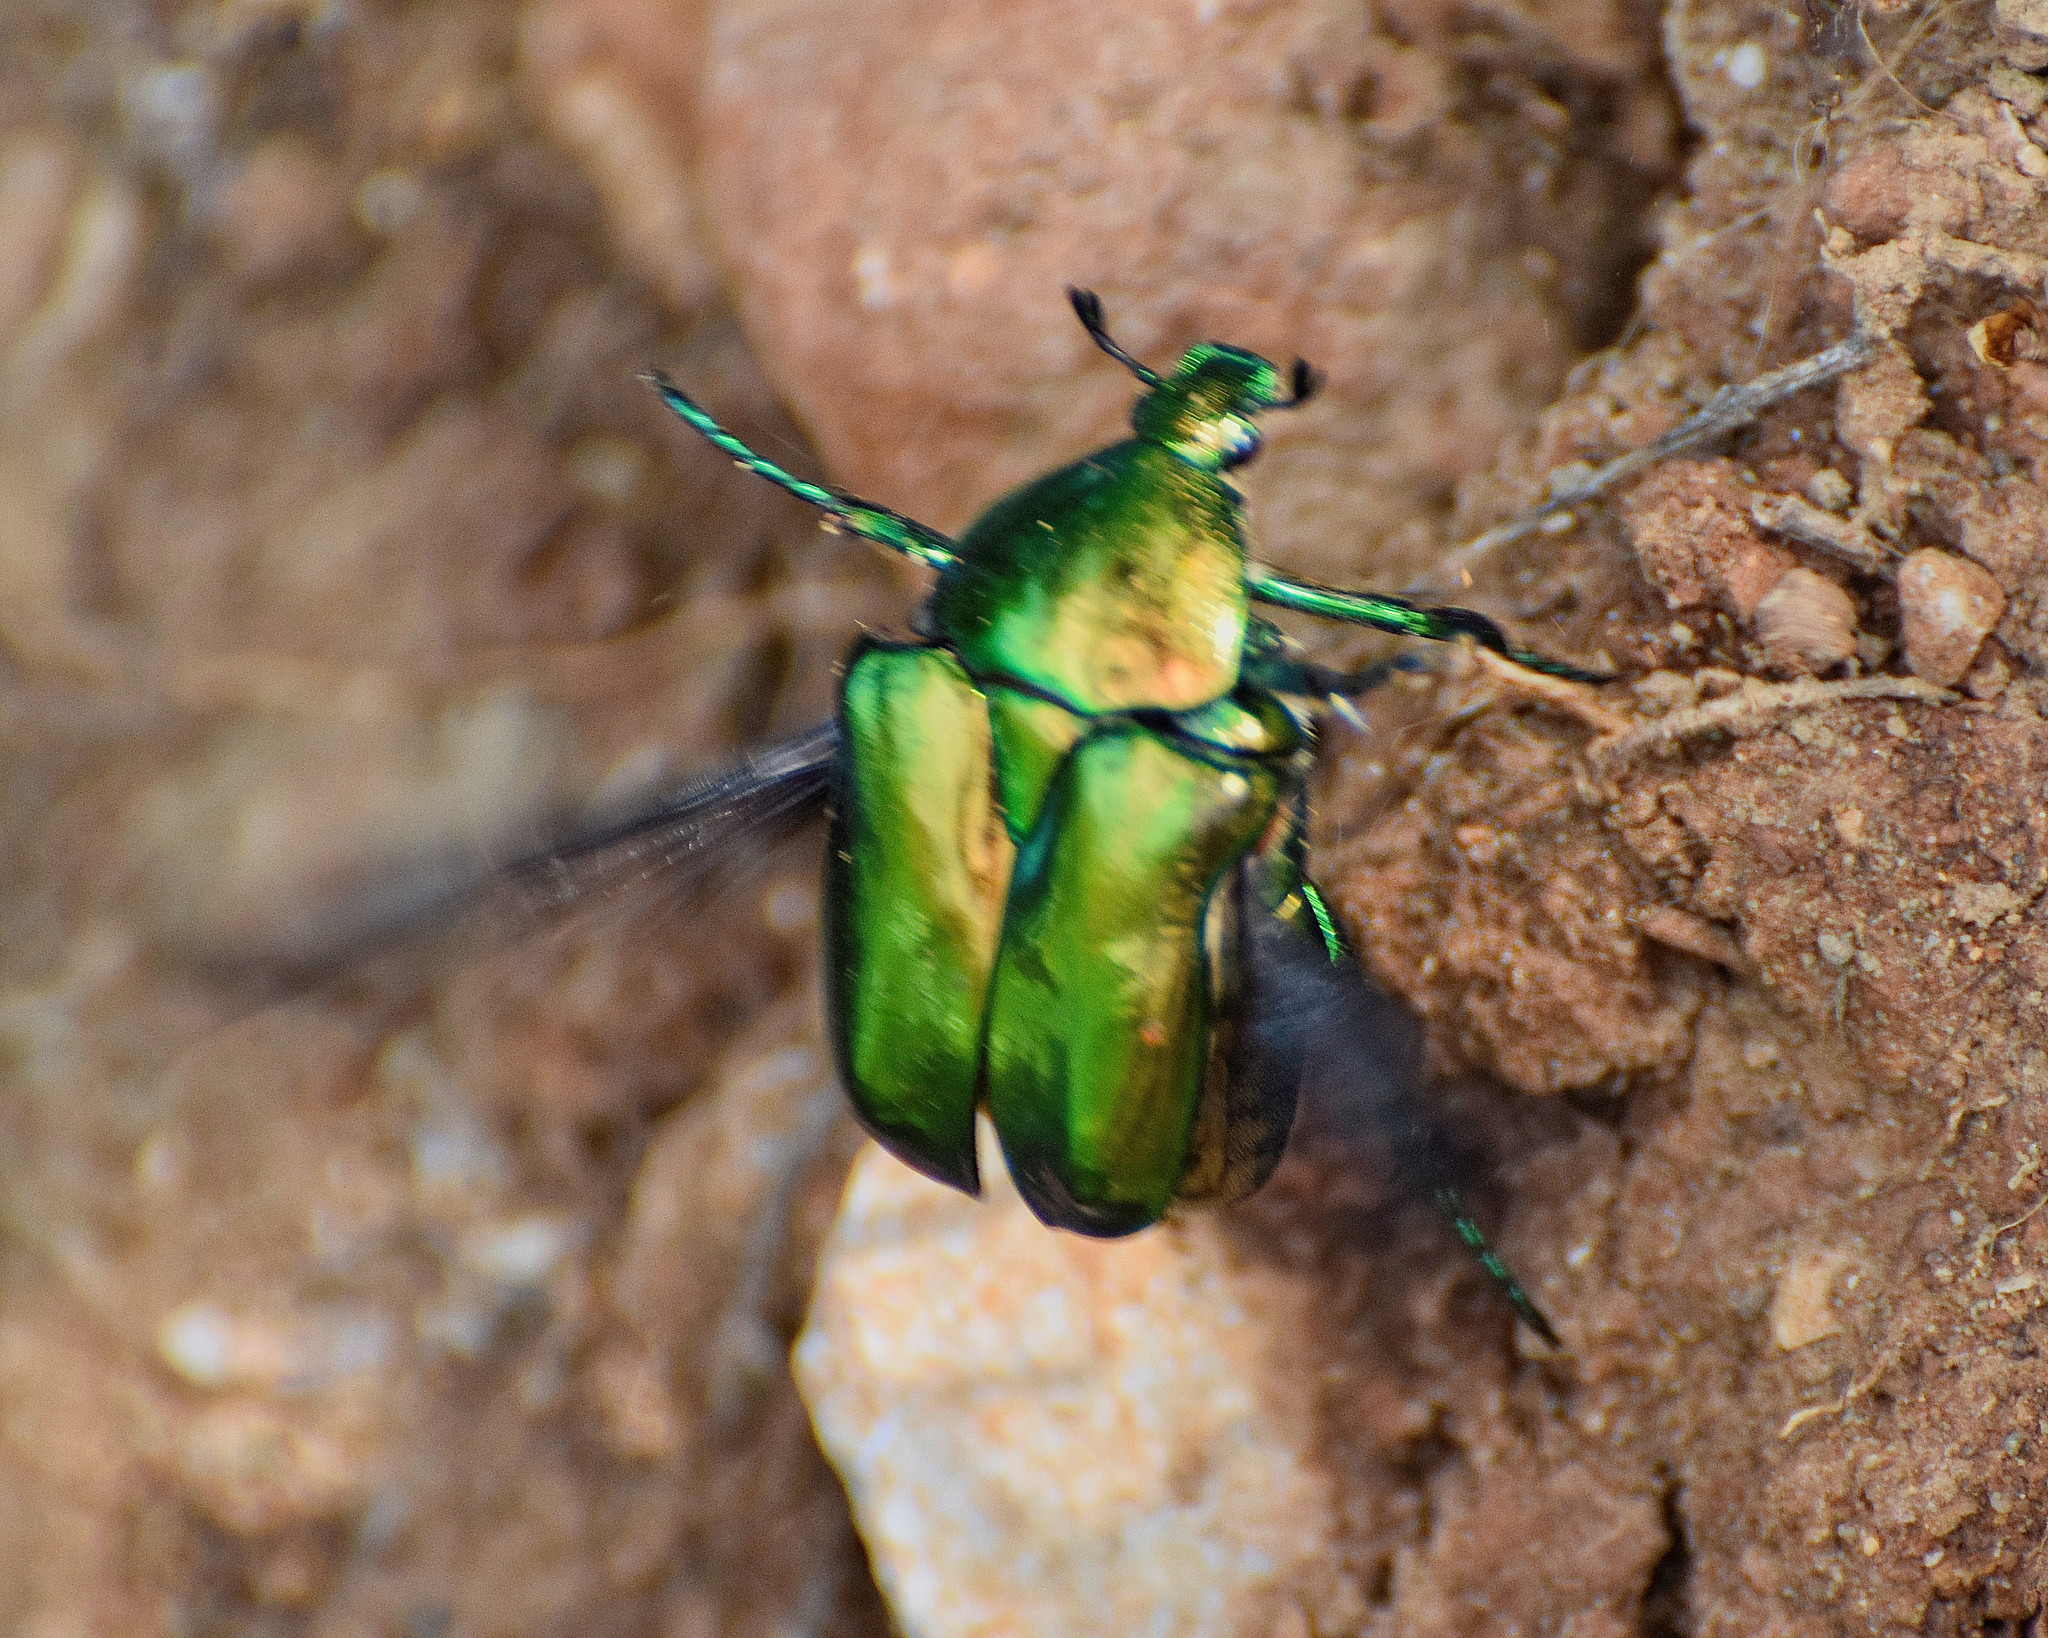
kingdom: Animalia
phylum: Arthropoda
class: Insecta
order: Coleoptera
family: Scarabaeidae
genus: Protaetia
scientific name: Protaetia speciosissima
